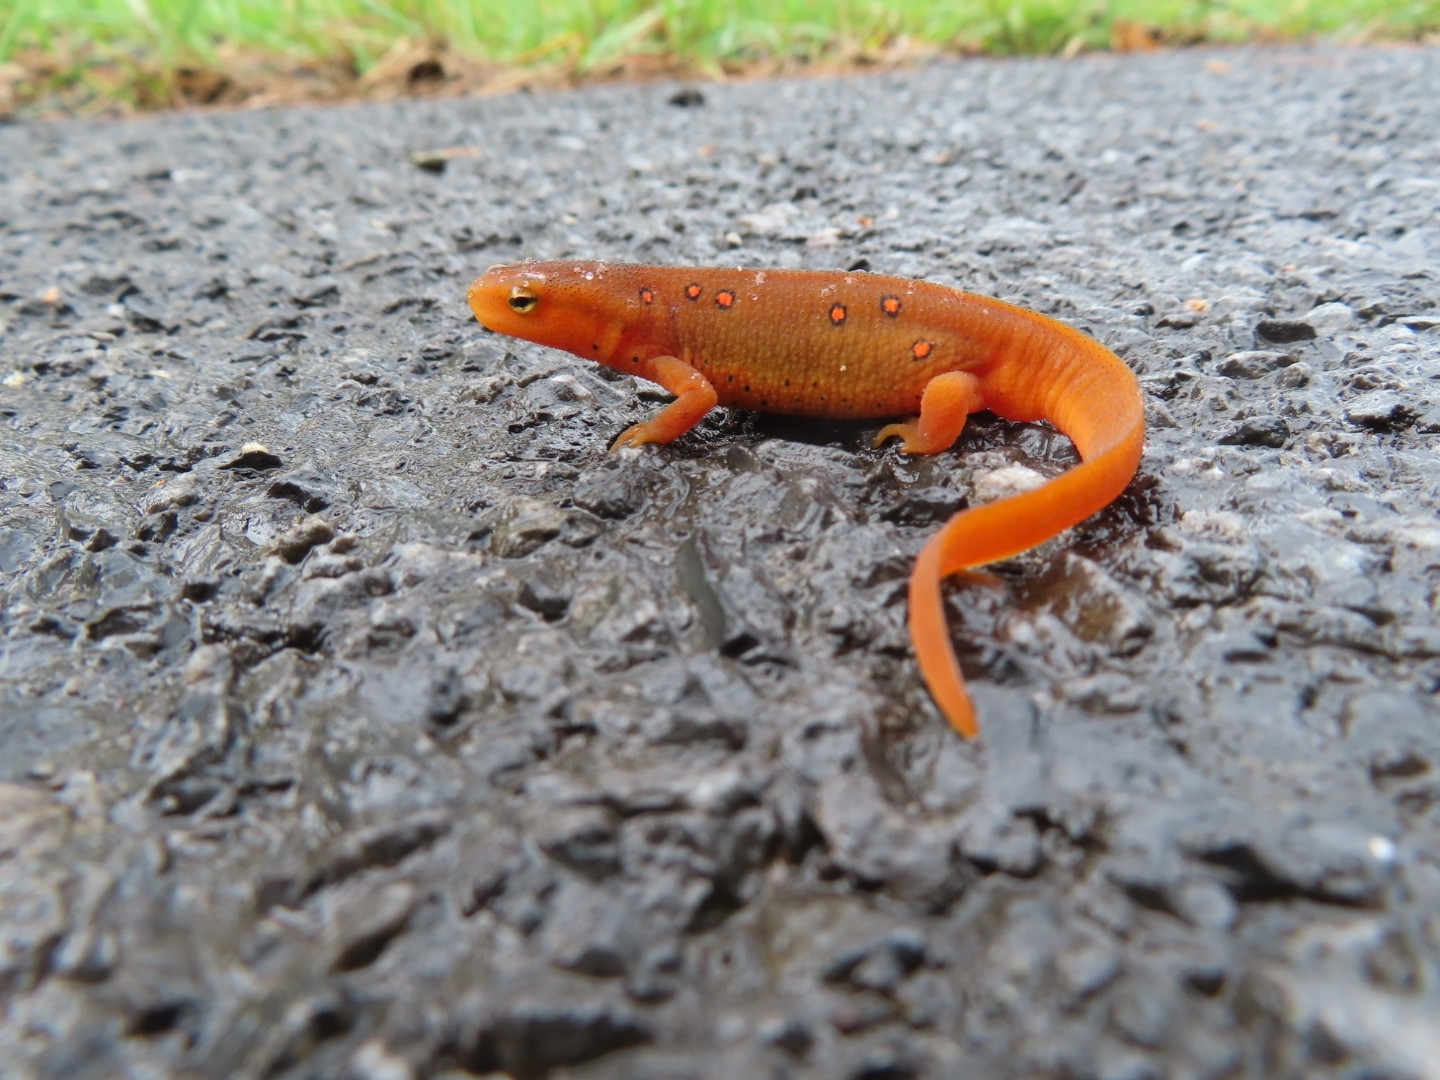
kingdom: Animalia
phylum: Chordata
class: Amphibia
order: Caudata
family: Salamandridae
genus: Notophthalmus
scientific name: Notophthalmus viridescens
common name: Eastern newt
